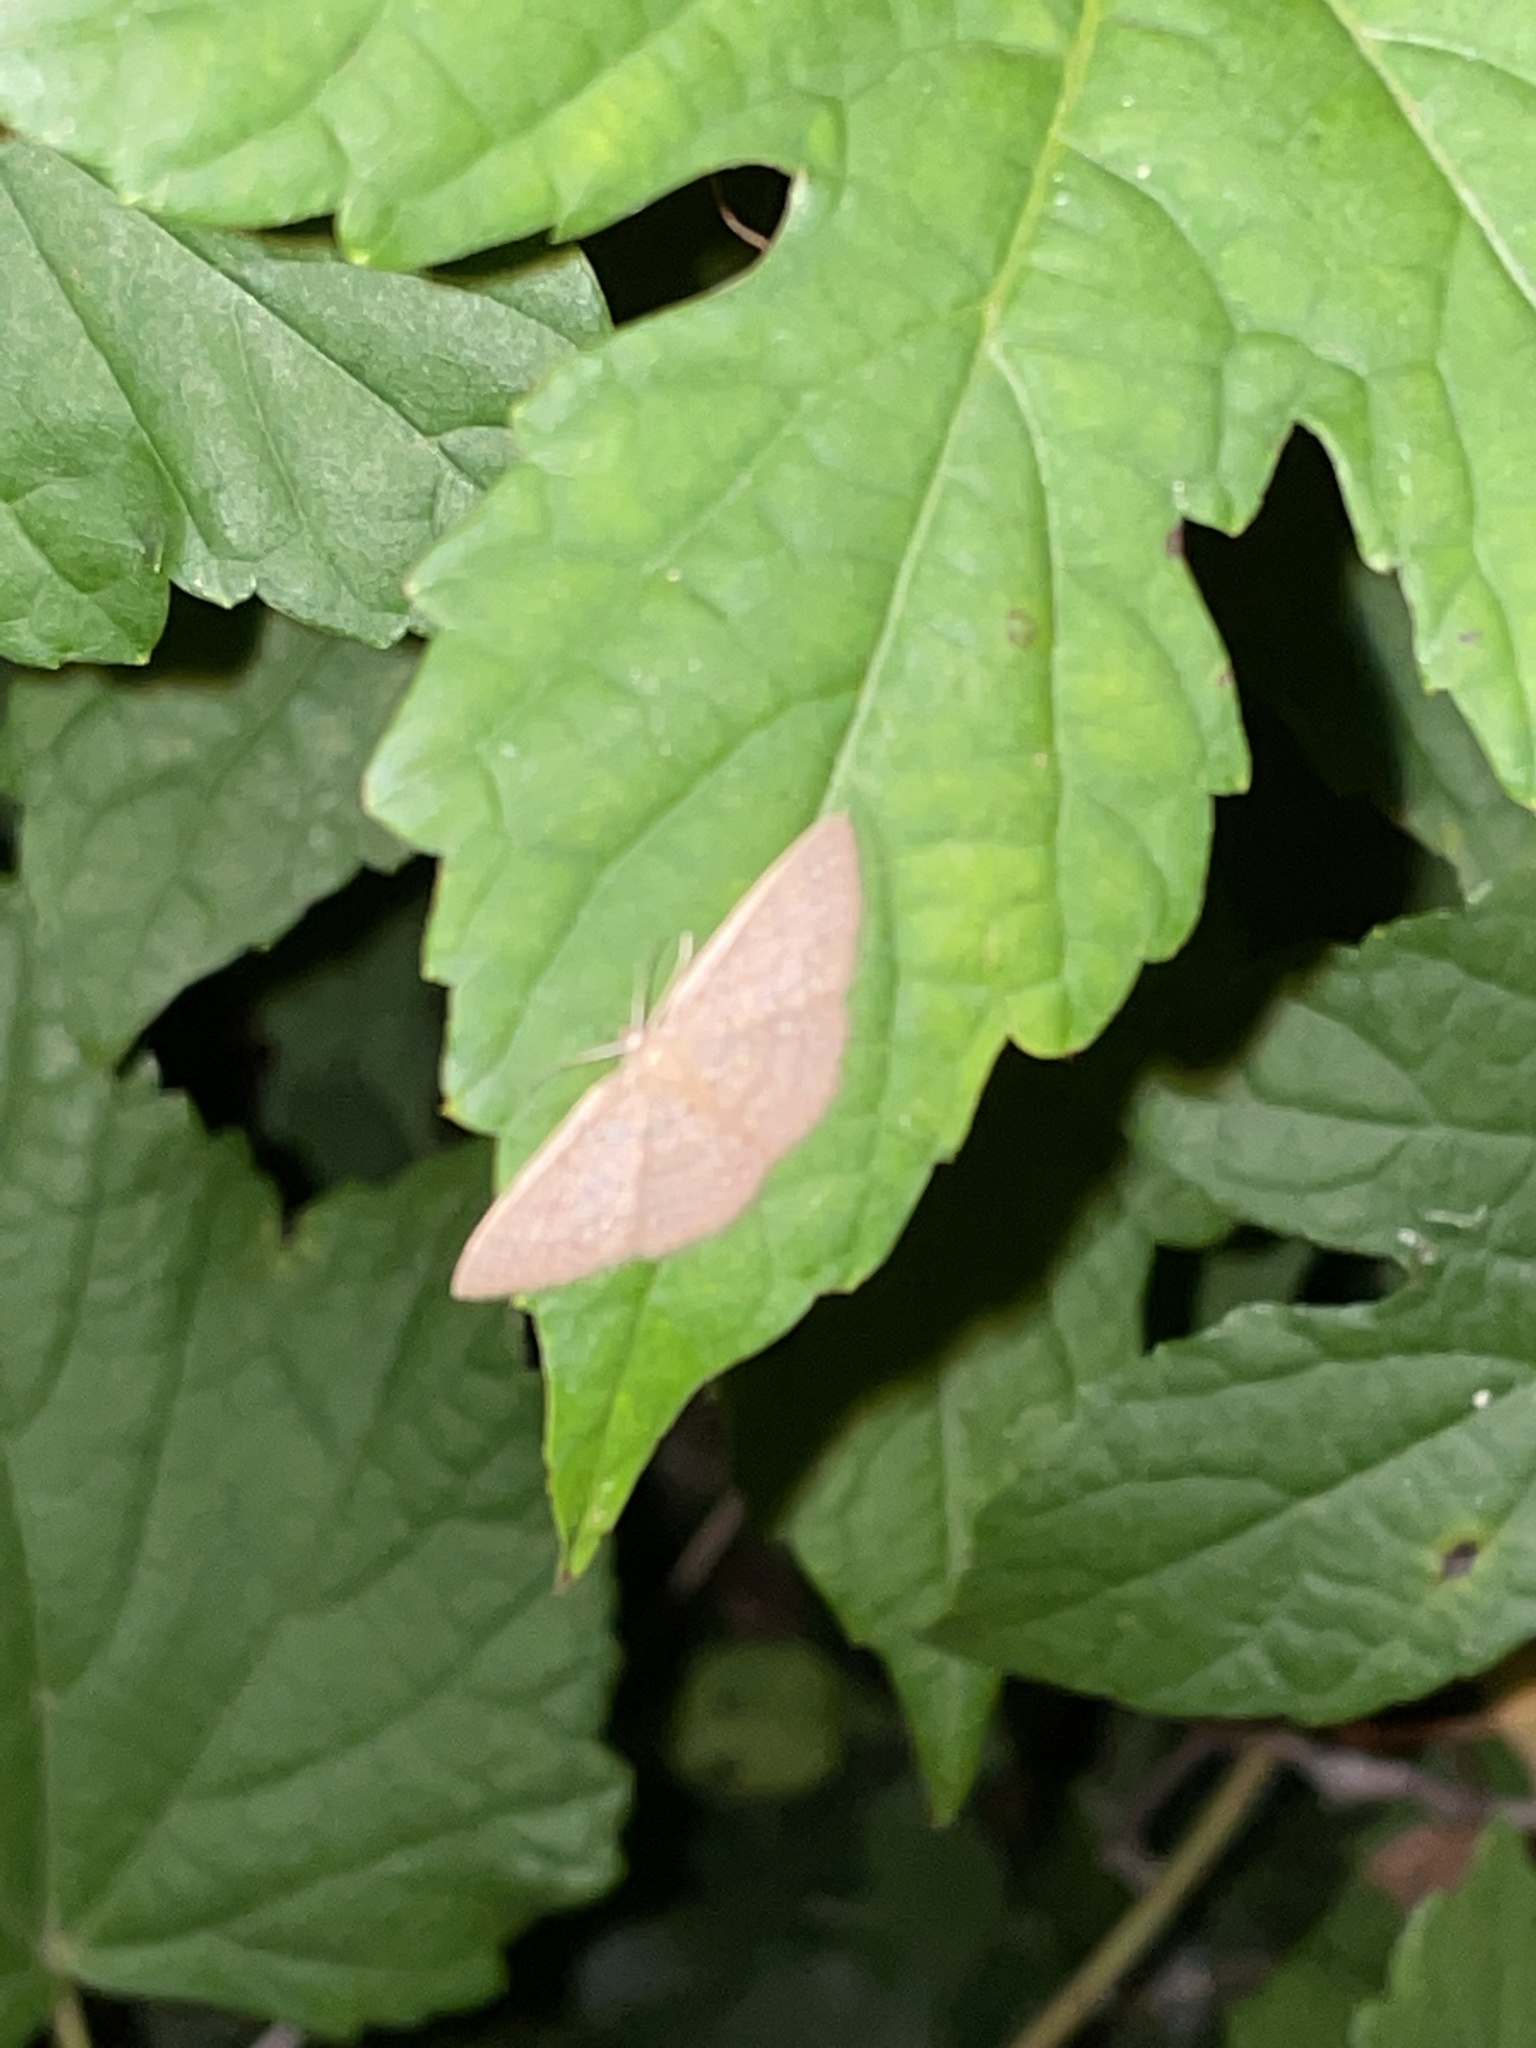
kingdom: Animalia
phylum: Arthropoda
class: Insecta
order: Lepidoptera
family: Geometridae
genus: Pleuroprucha
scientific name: Pleuroprucha insulsaria
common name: Common tan wave
